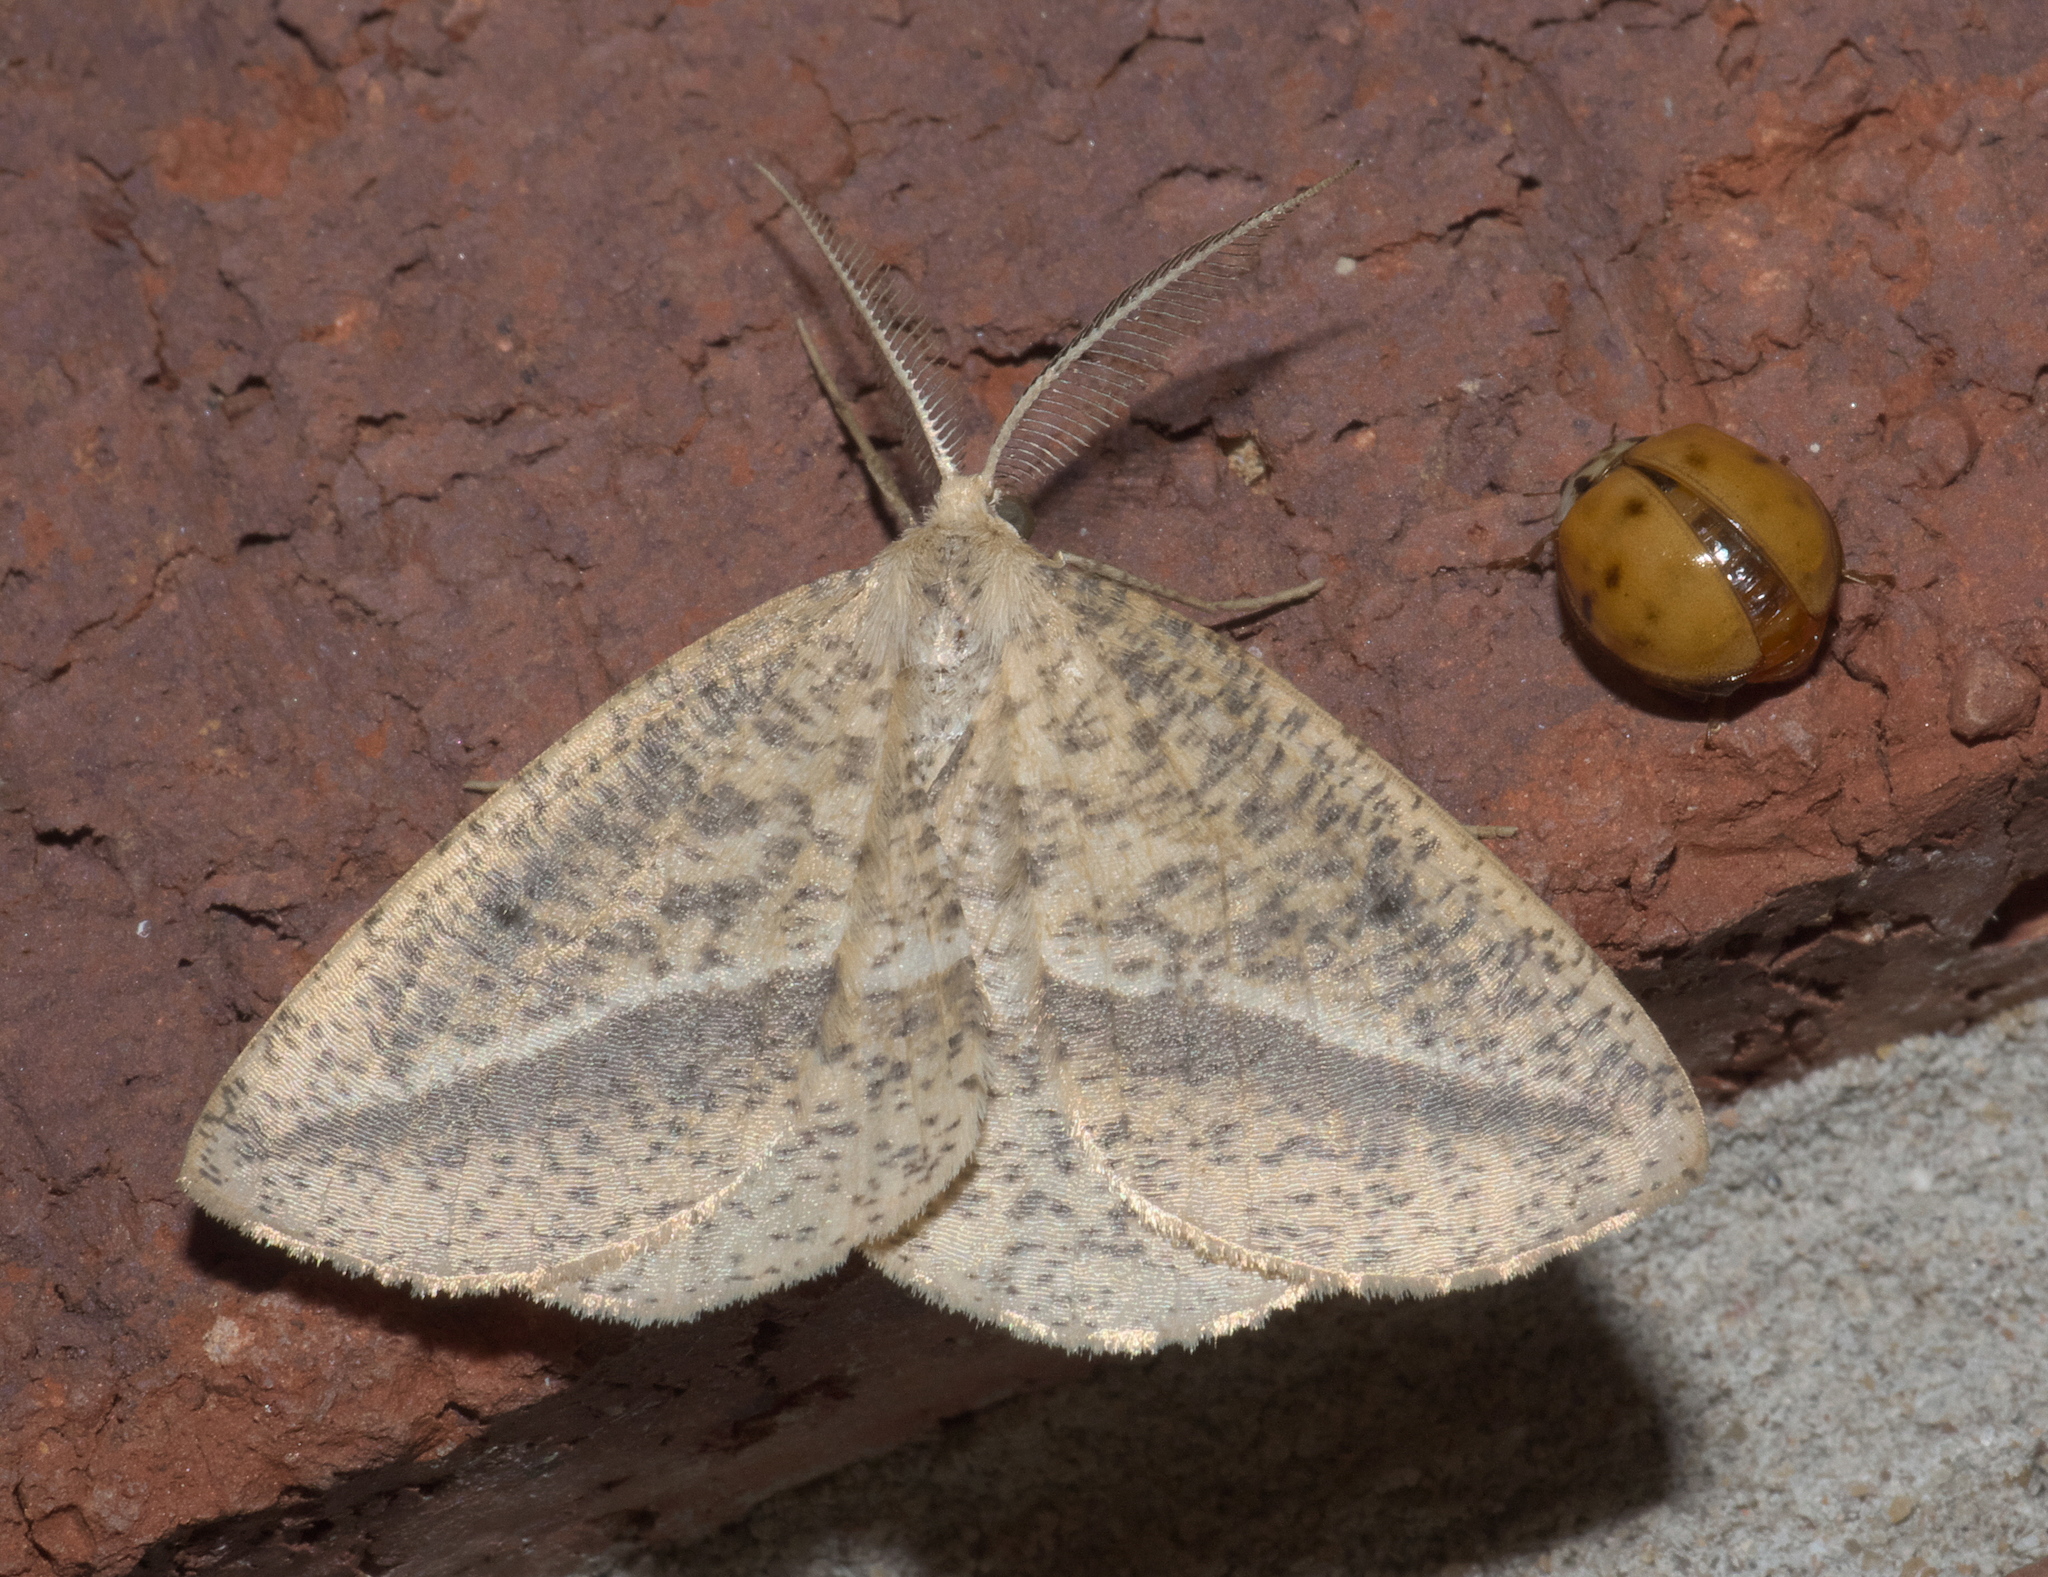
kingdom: Animalia
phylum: Arthropoda
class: Insecta
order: Lepidoptera
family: Geometridae
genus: Lychnosea
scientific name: Lychnosea intermicata
